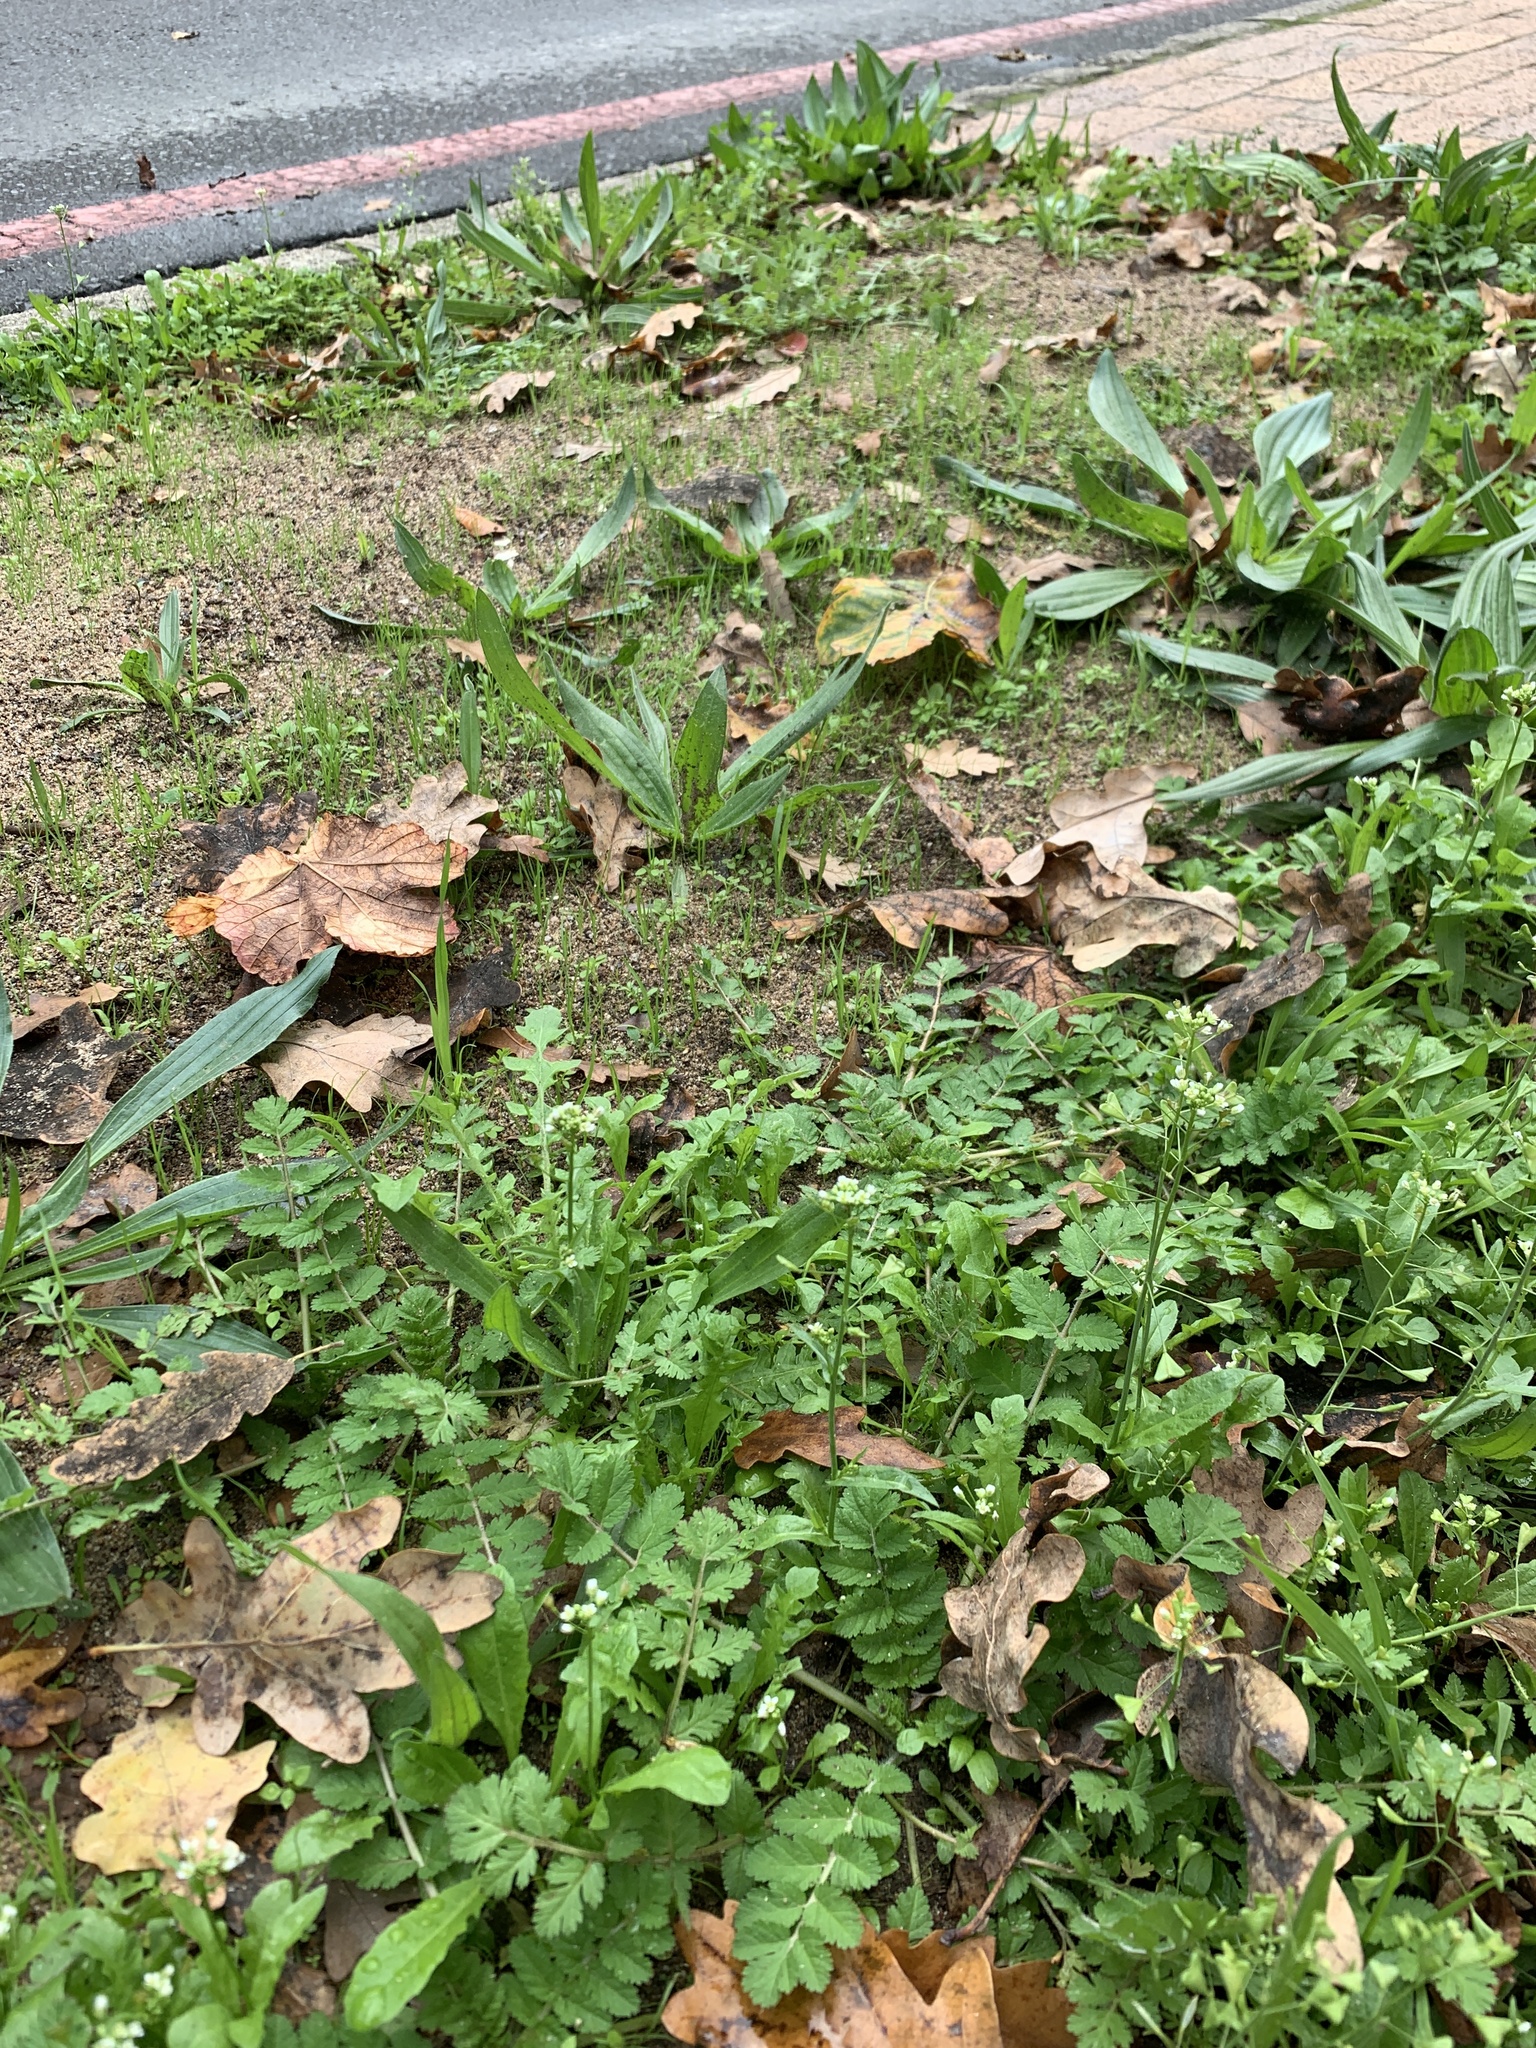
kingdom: Plantae
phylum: Tracheophyta
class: Magnoliopsida
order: Brassicales
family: Brassicaceae
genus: Capsella
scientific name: Capsella bursa-pastoris
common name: Shepherd's purse
